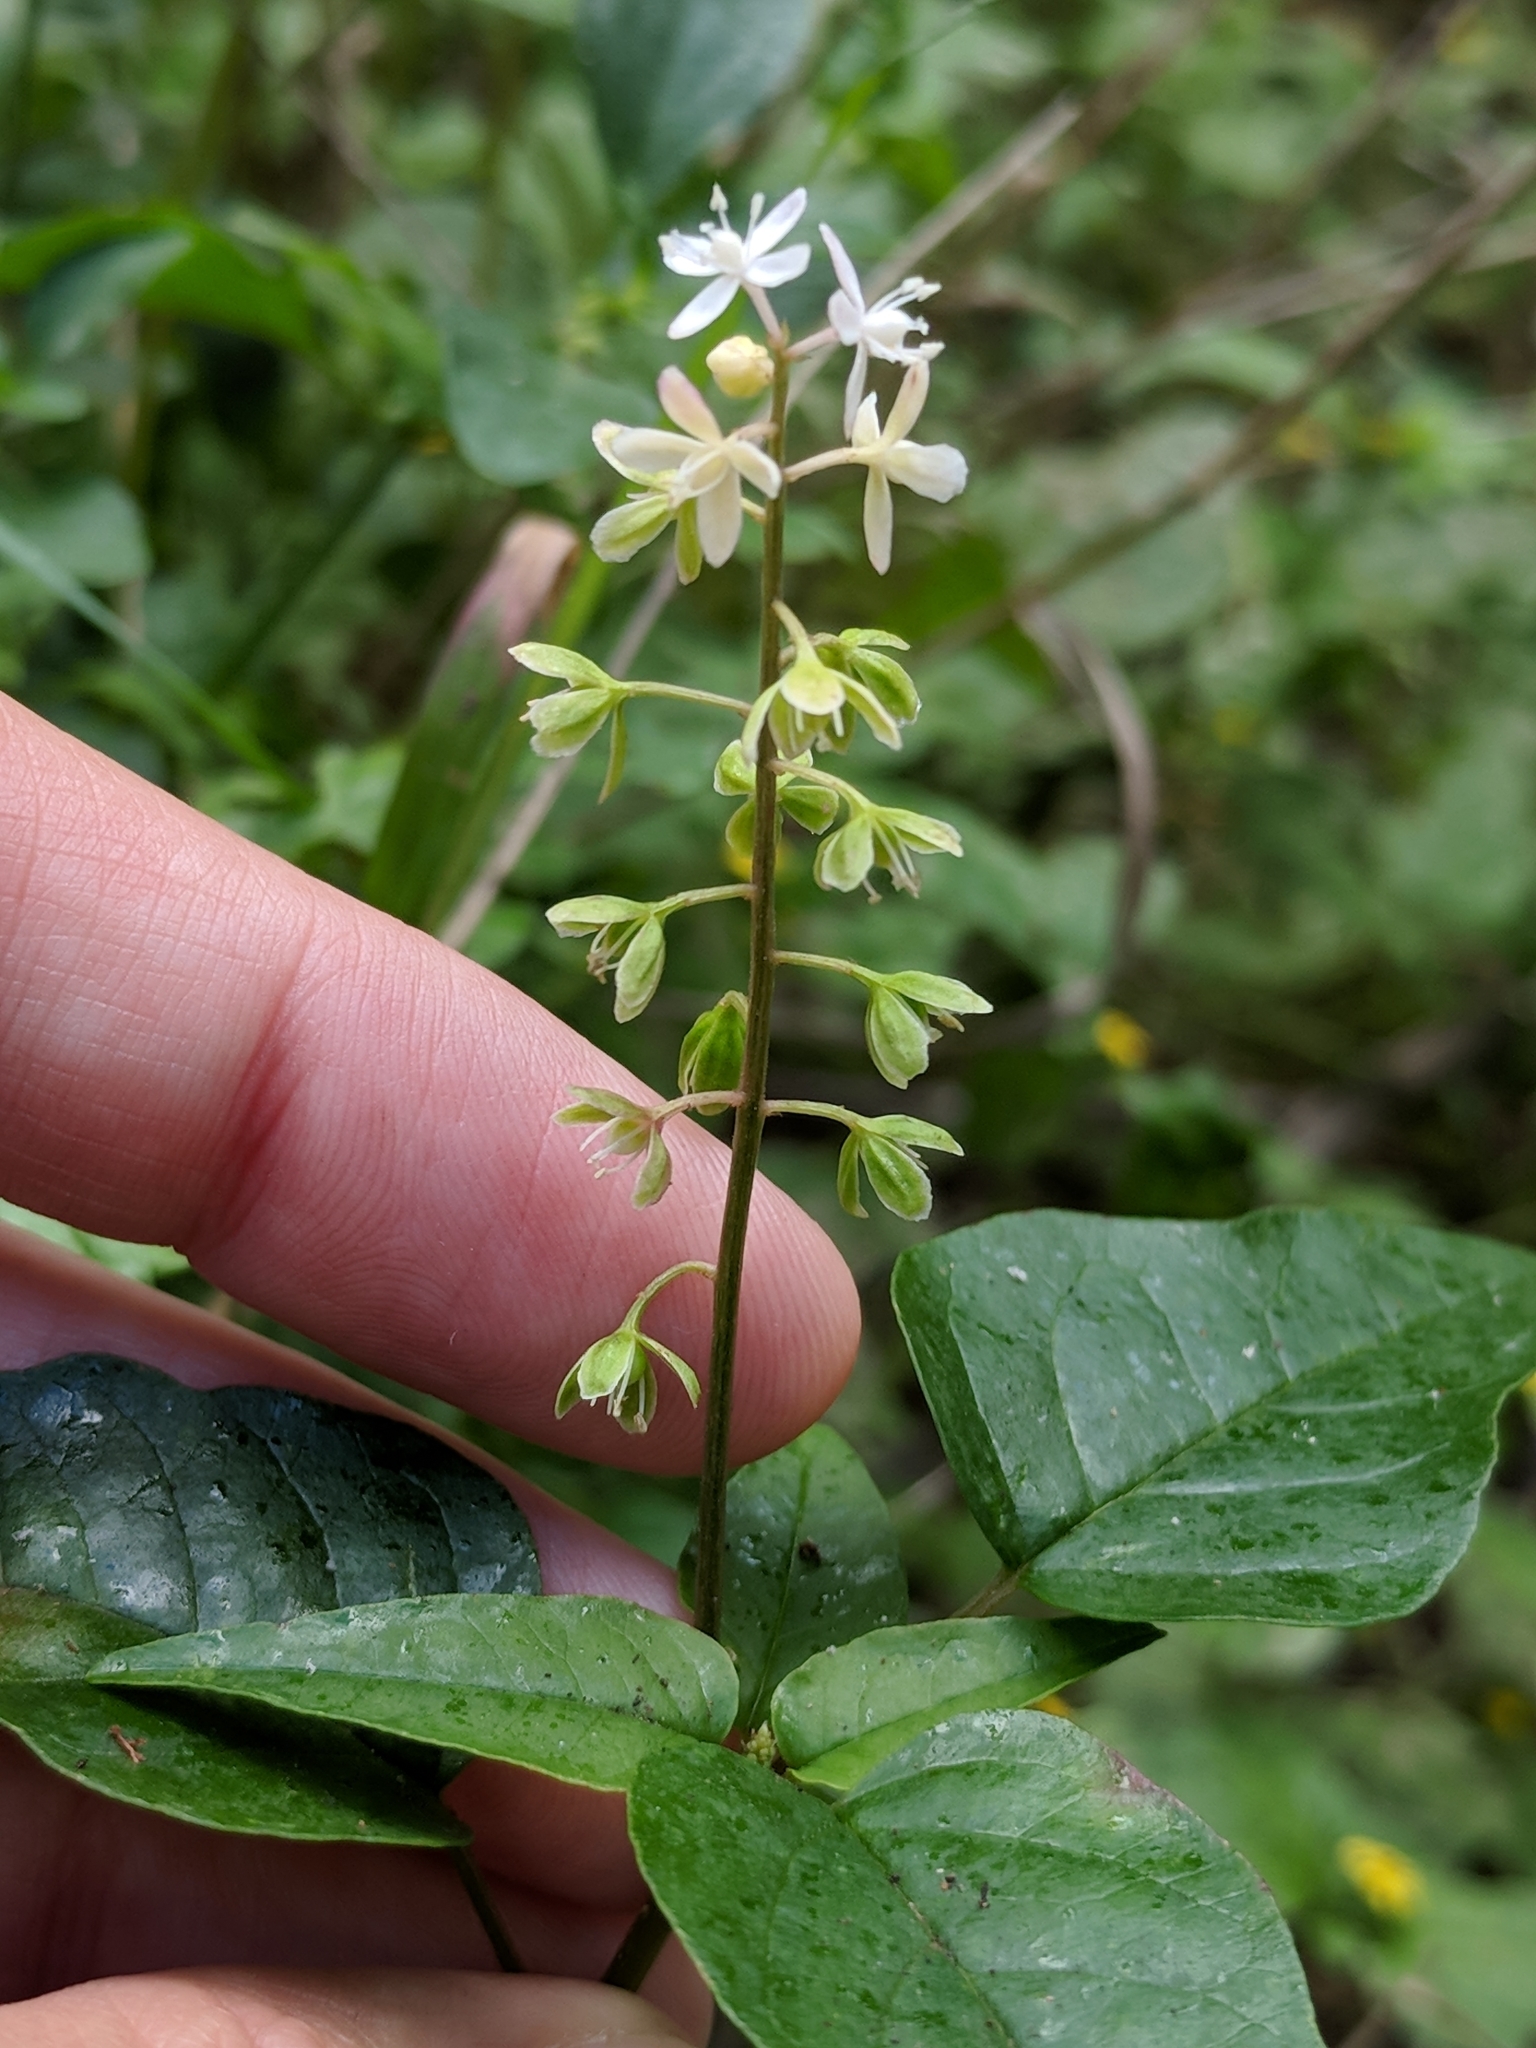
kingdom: Plantae
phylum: Tracheophyta
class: Magnoliopsida
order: Caryophyllales
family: Phytolaccaceae
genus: Rivina
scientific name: Rivina humilis
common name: Rougeplant
